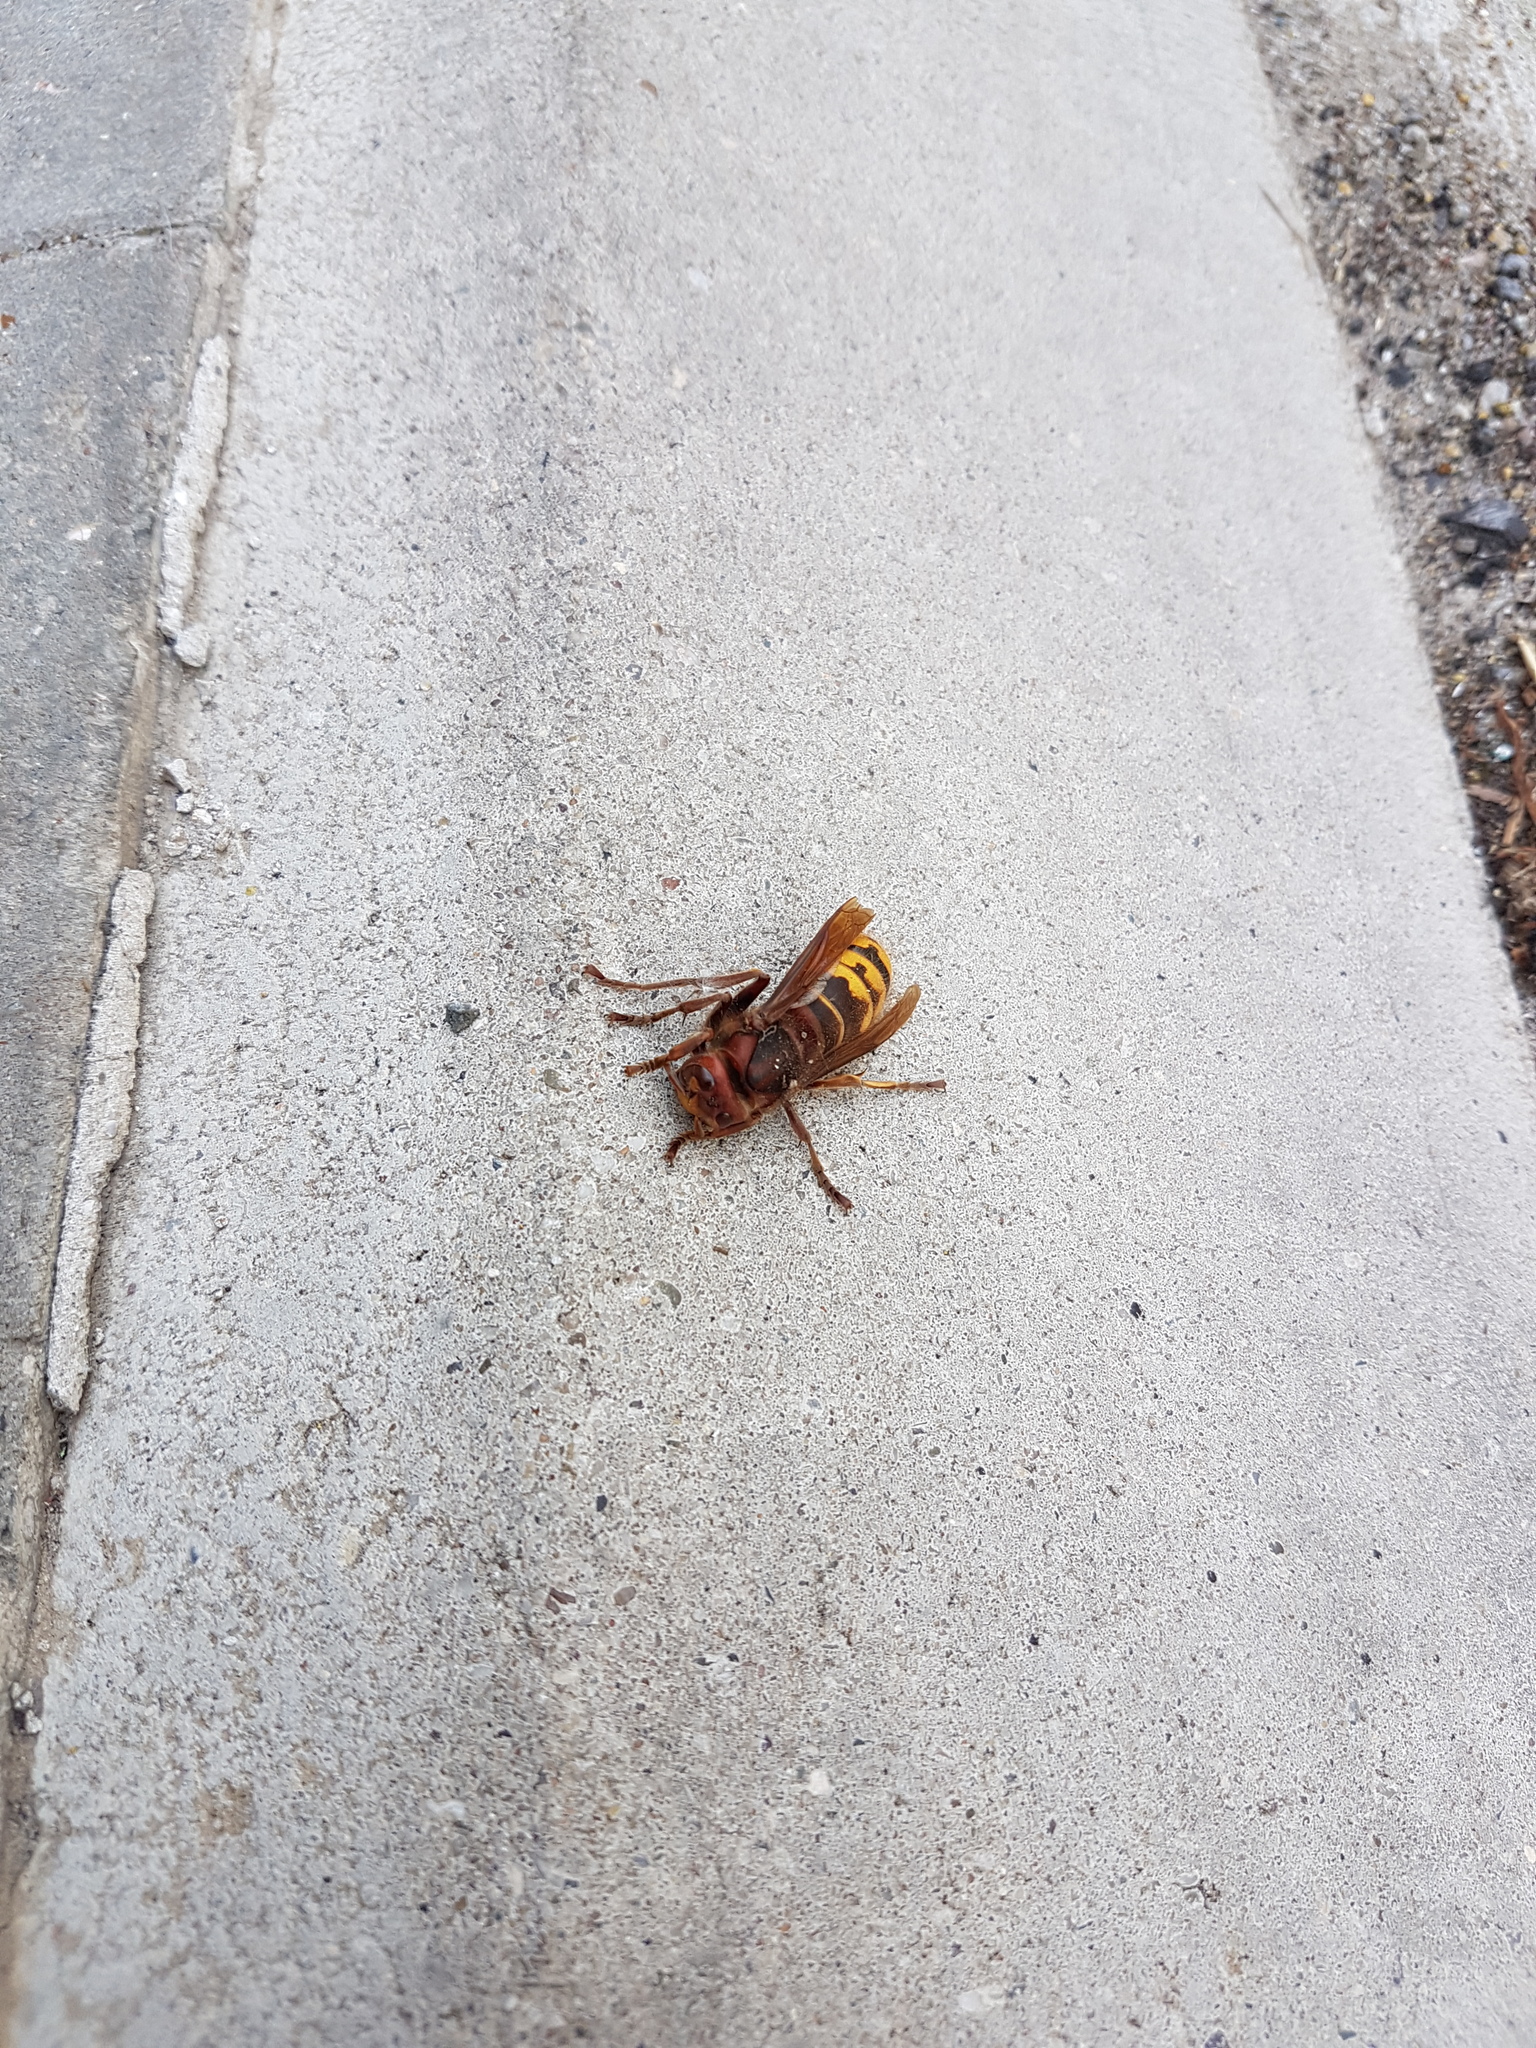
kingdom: Animalia
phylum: Arthropoda
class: Insecta
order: Hymenoptera
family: Vespidae
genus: Vespa
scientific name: Vespa crabro
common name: Hornet
